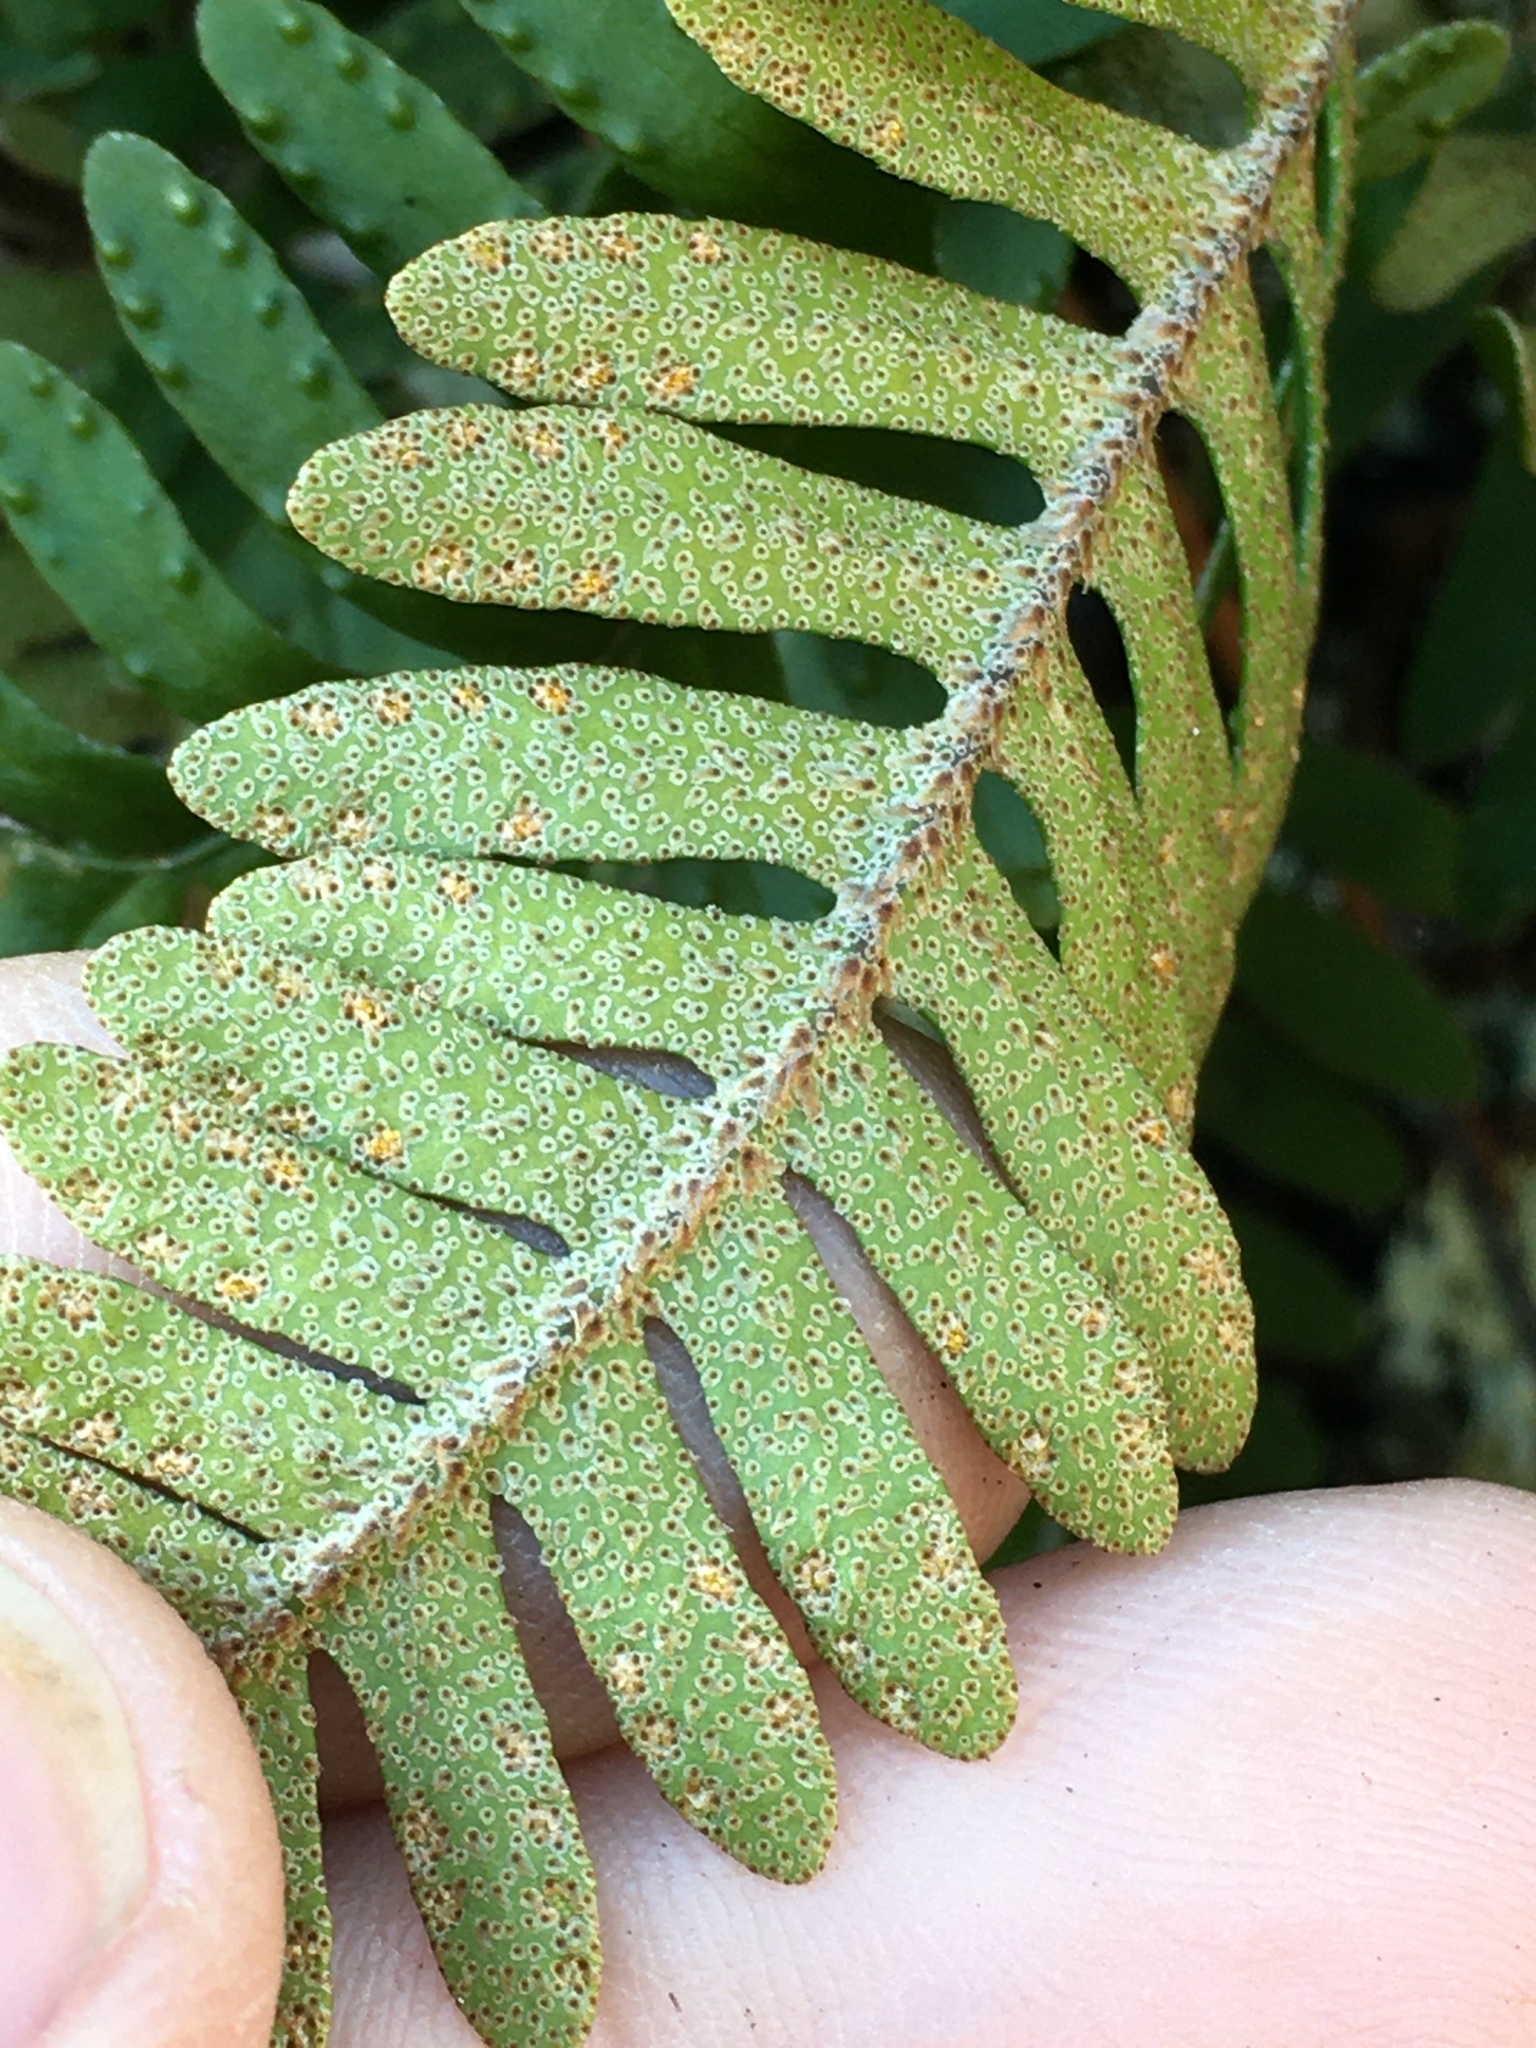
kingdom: Plantae
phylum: Tracheophyta
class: Polypodiopsida
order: Polypodiales
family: Polypodiaceae
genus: Pleopeltis
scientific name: Pleopeltis michauxiana
